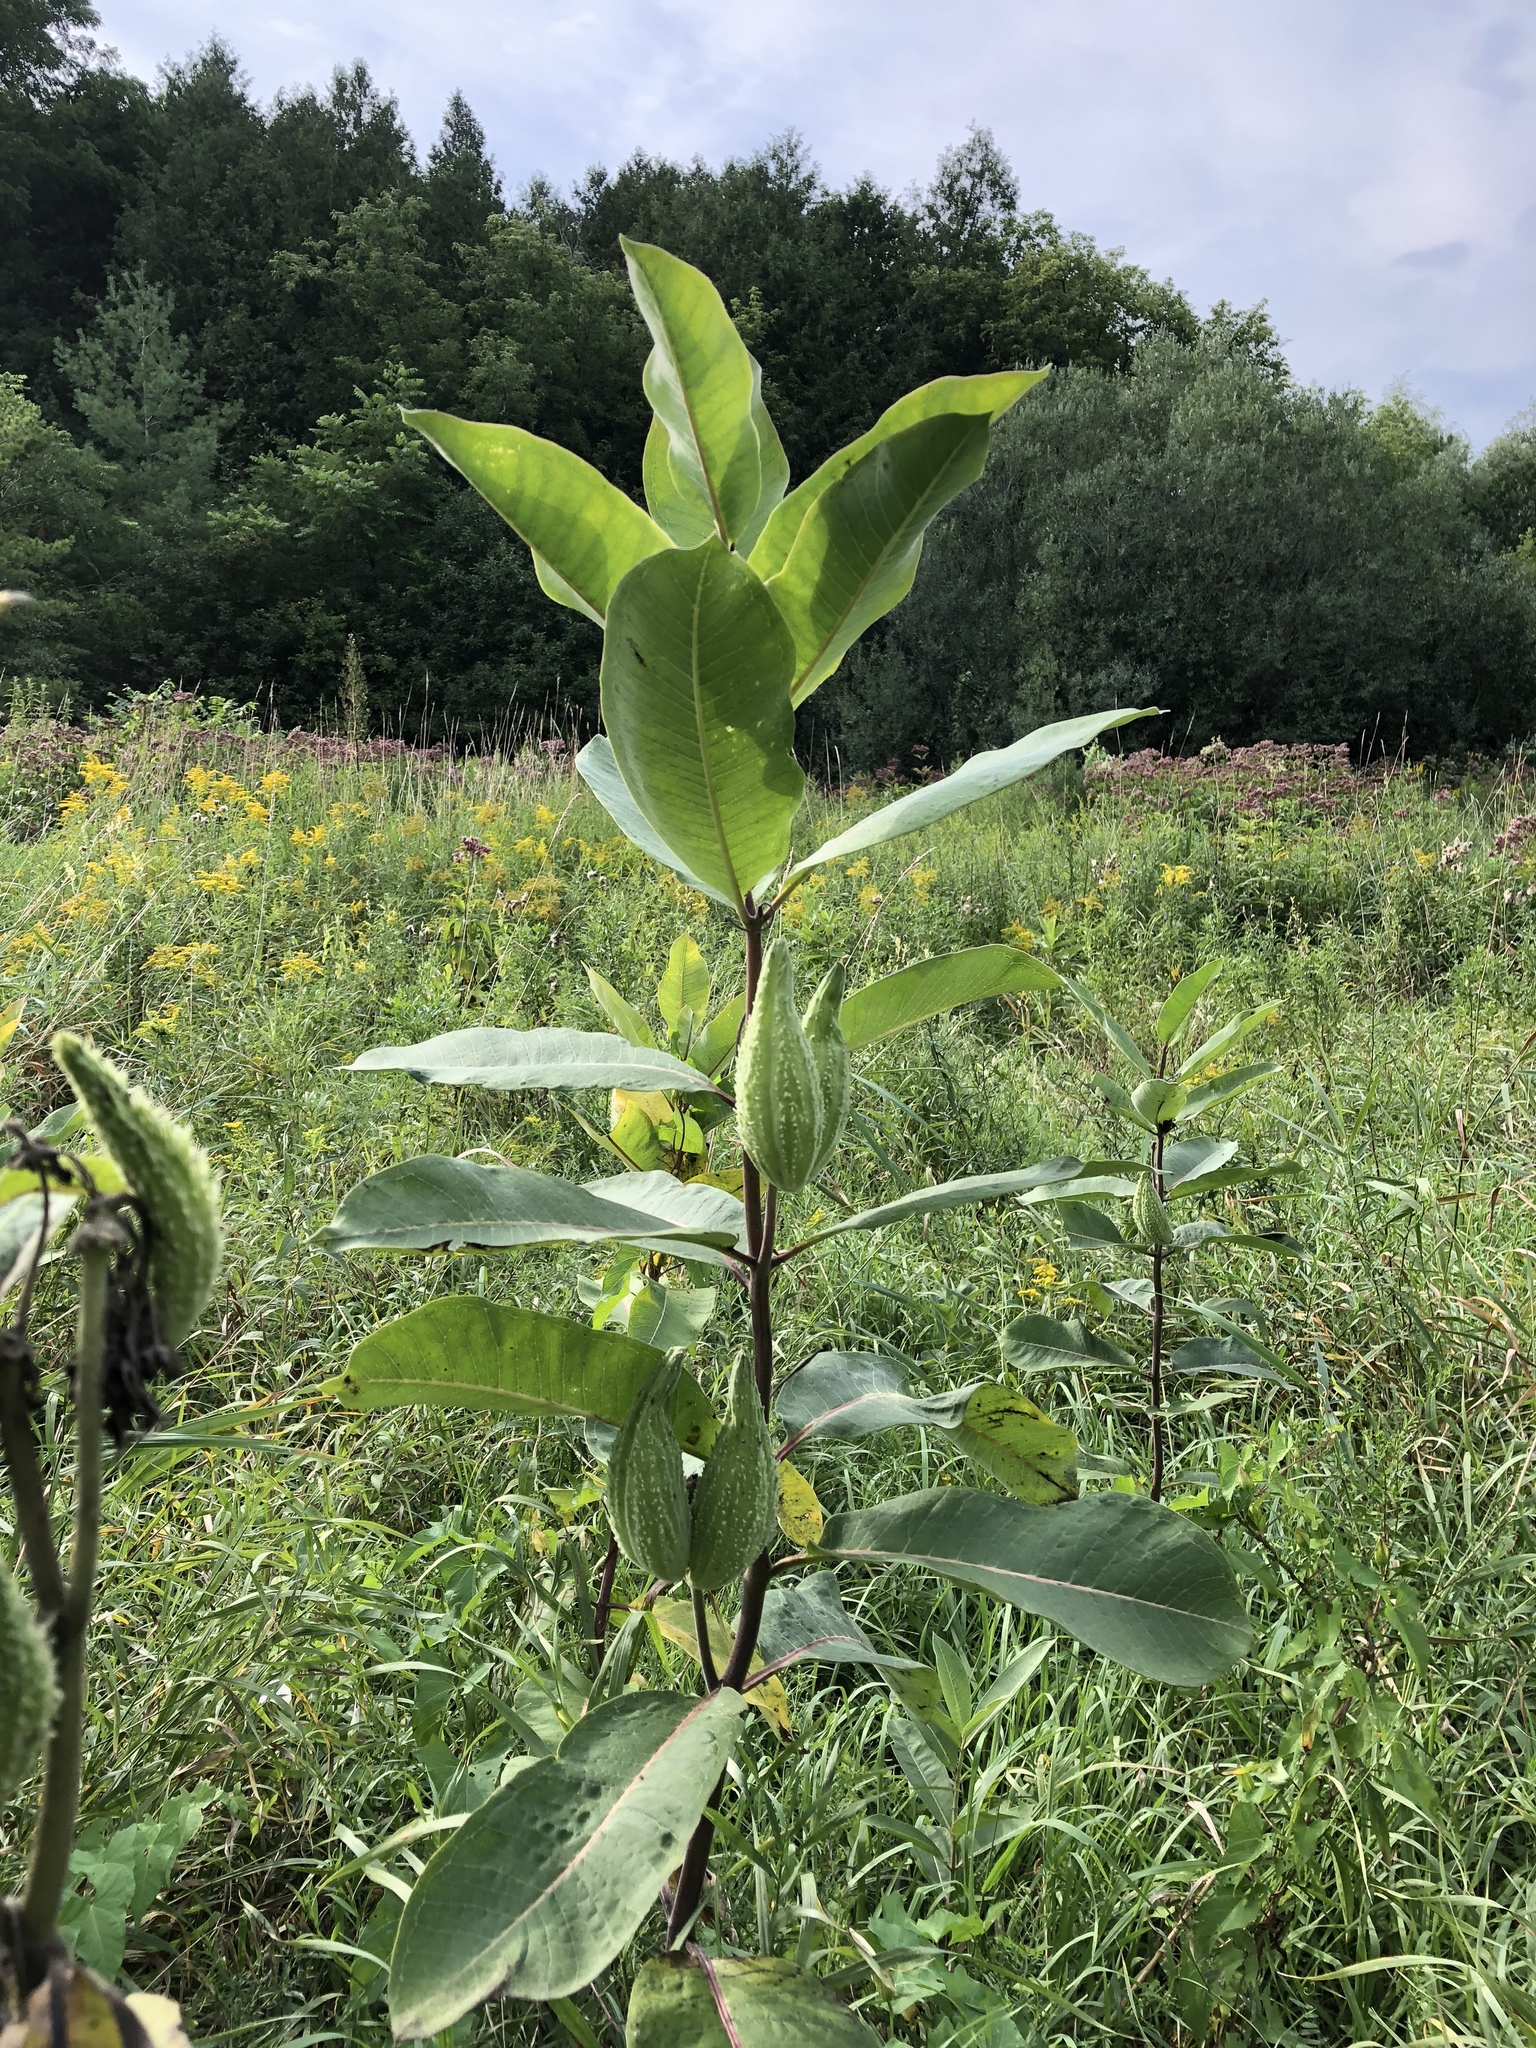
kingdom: Plantae
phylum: Tracheophyta
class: Magnoliopsida
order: Gentianales
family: Apocynaceae
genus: Asclepias
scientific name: Asclepias syriaca
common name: Common milkweed
